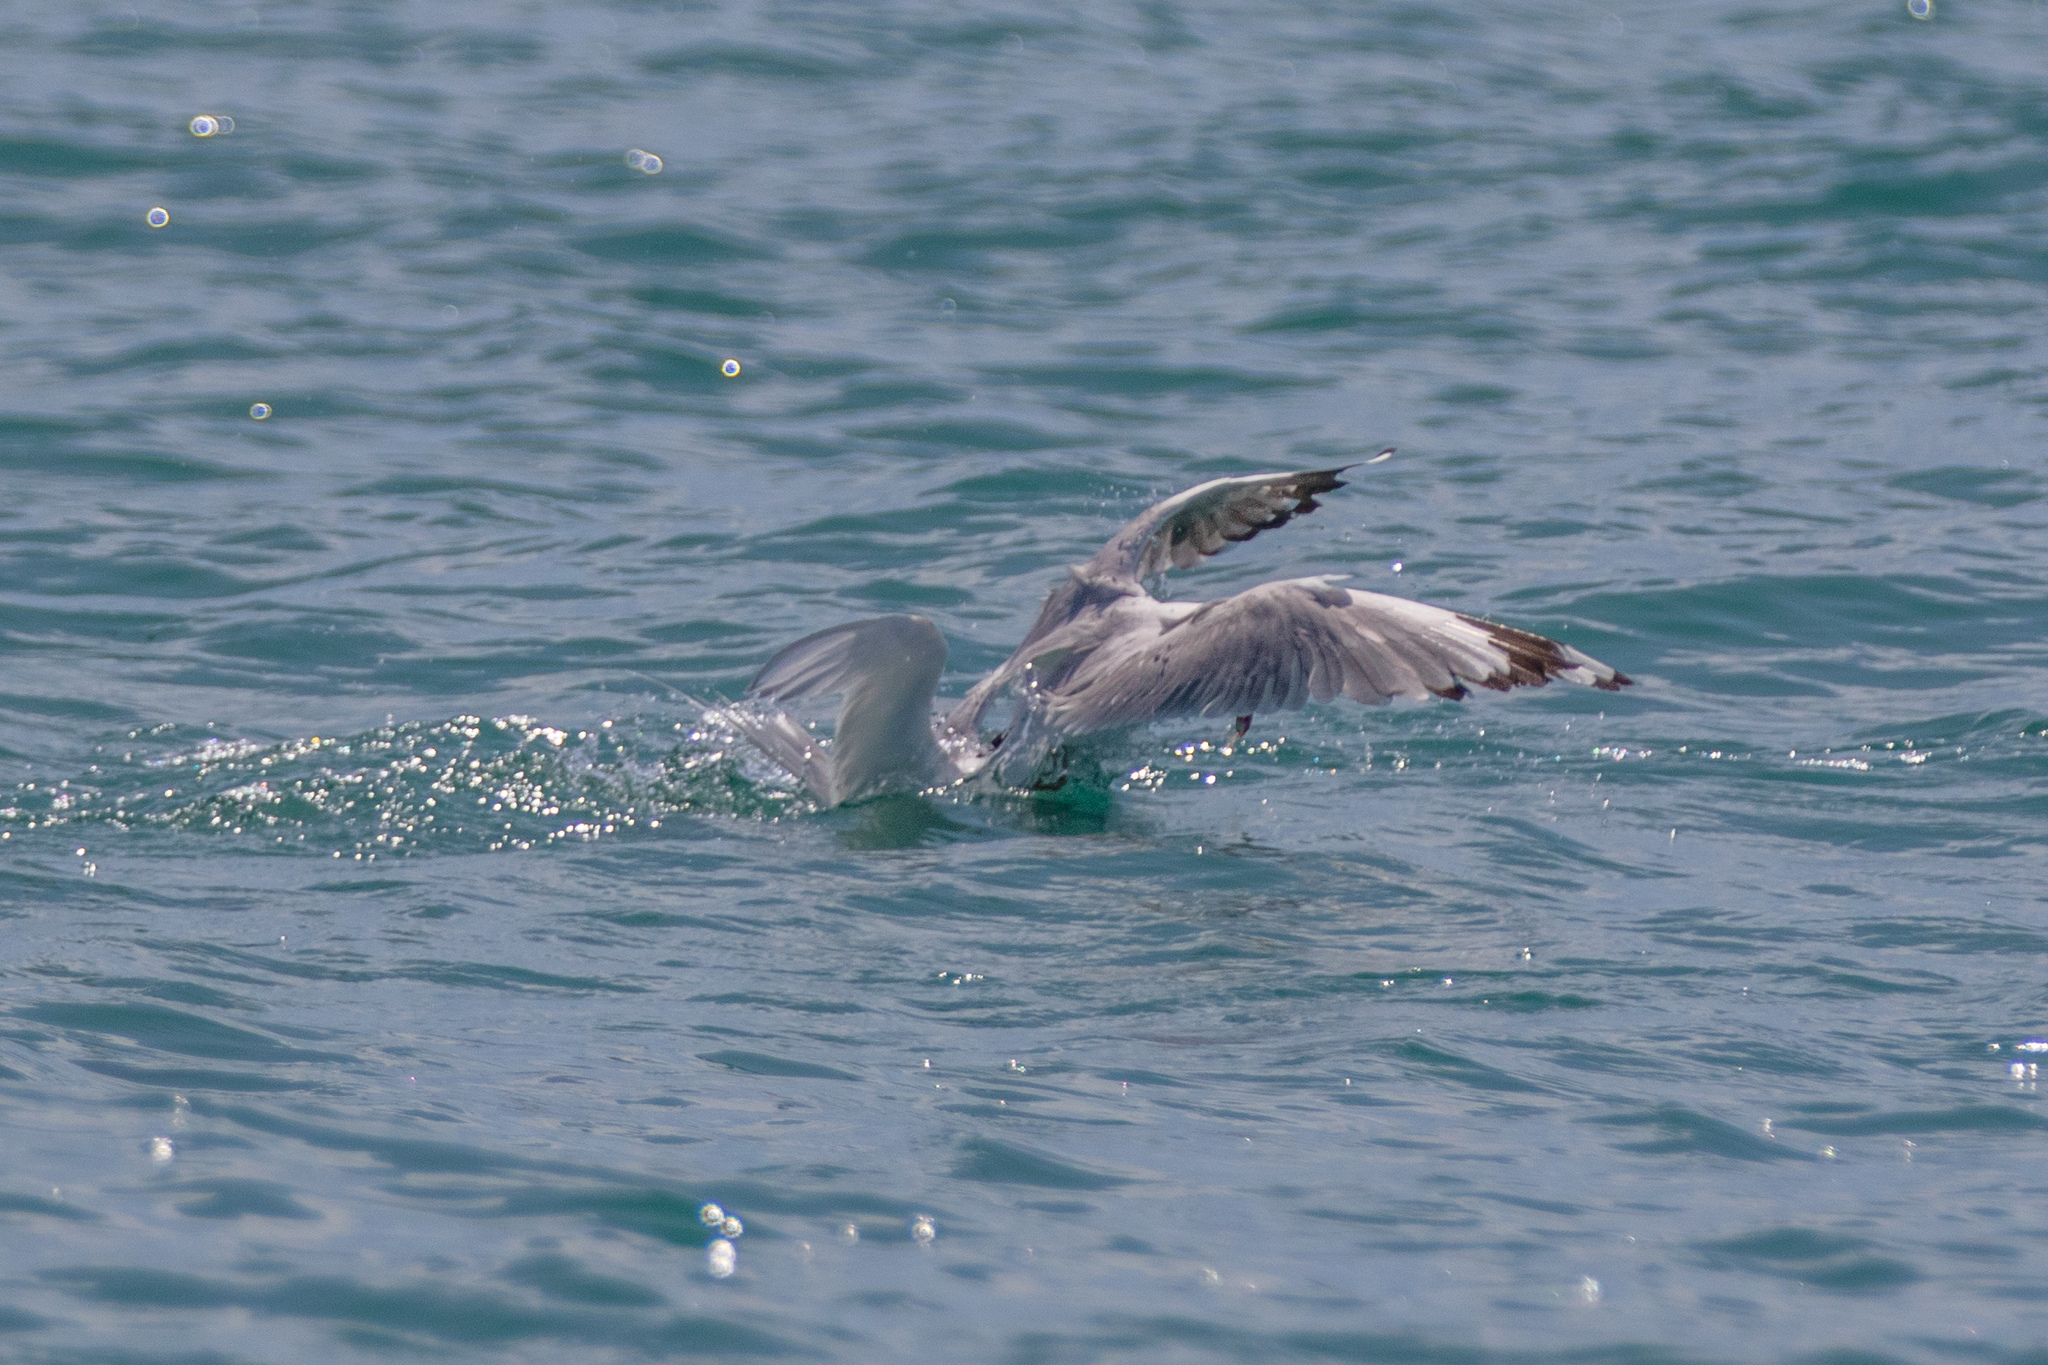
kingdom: Animalia
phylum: Chordata
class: Aves
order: Charadriiformes
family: Laridae
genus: Sterna
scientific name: Sterna striata
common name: White-fronted tern
